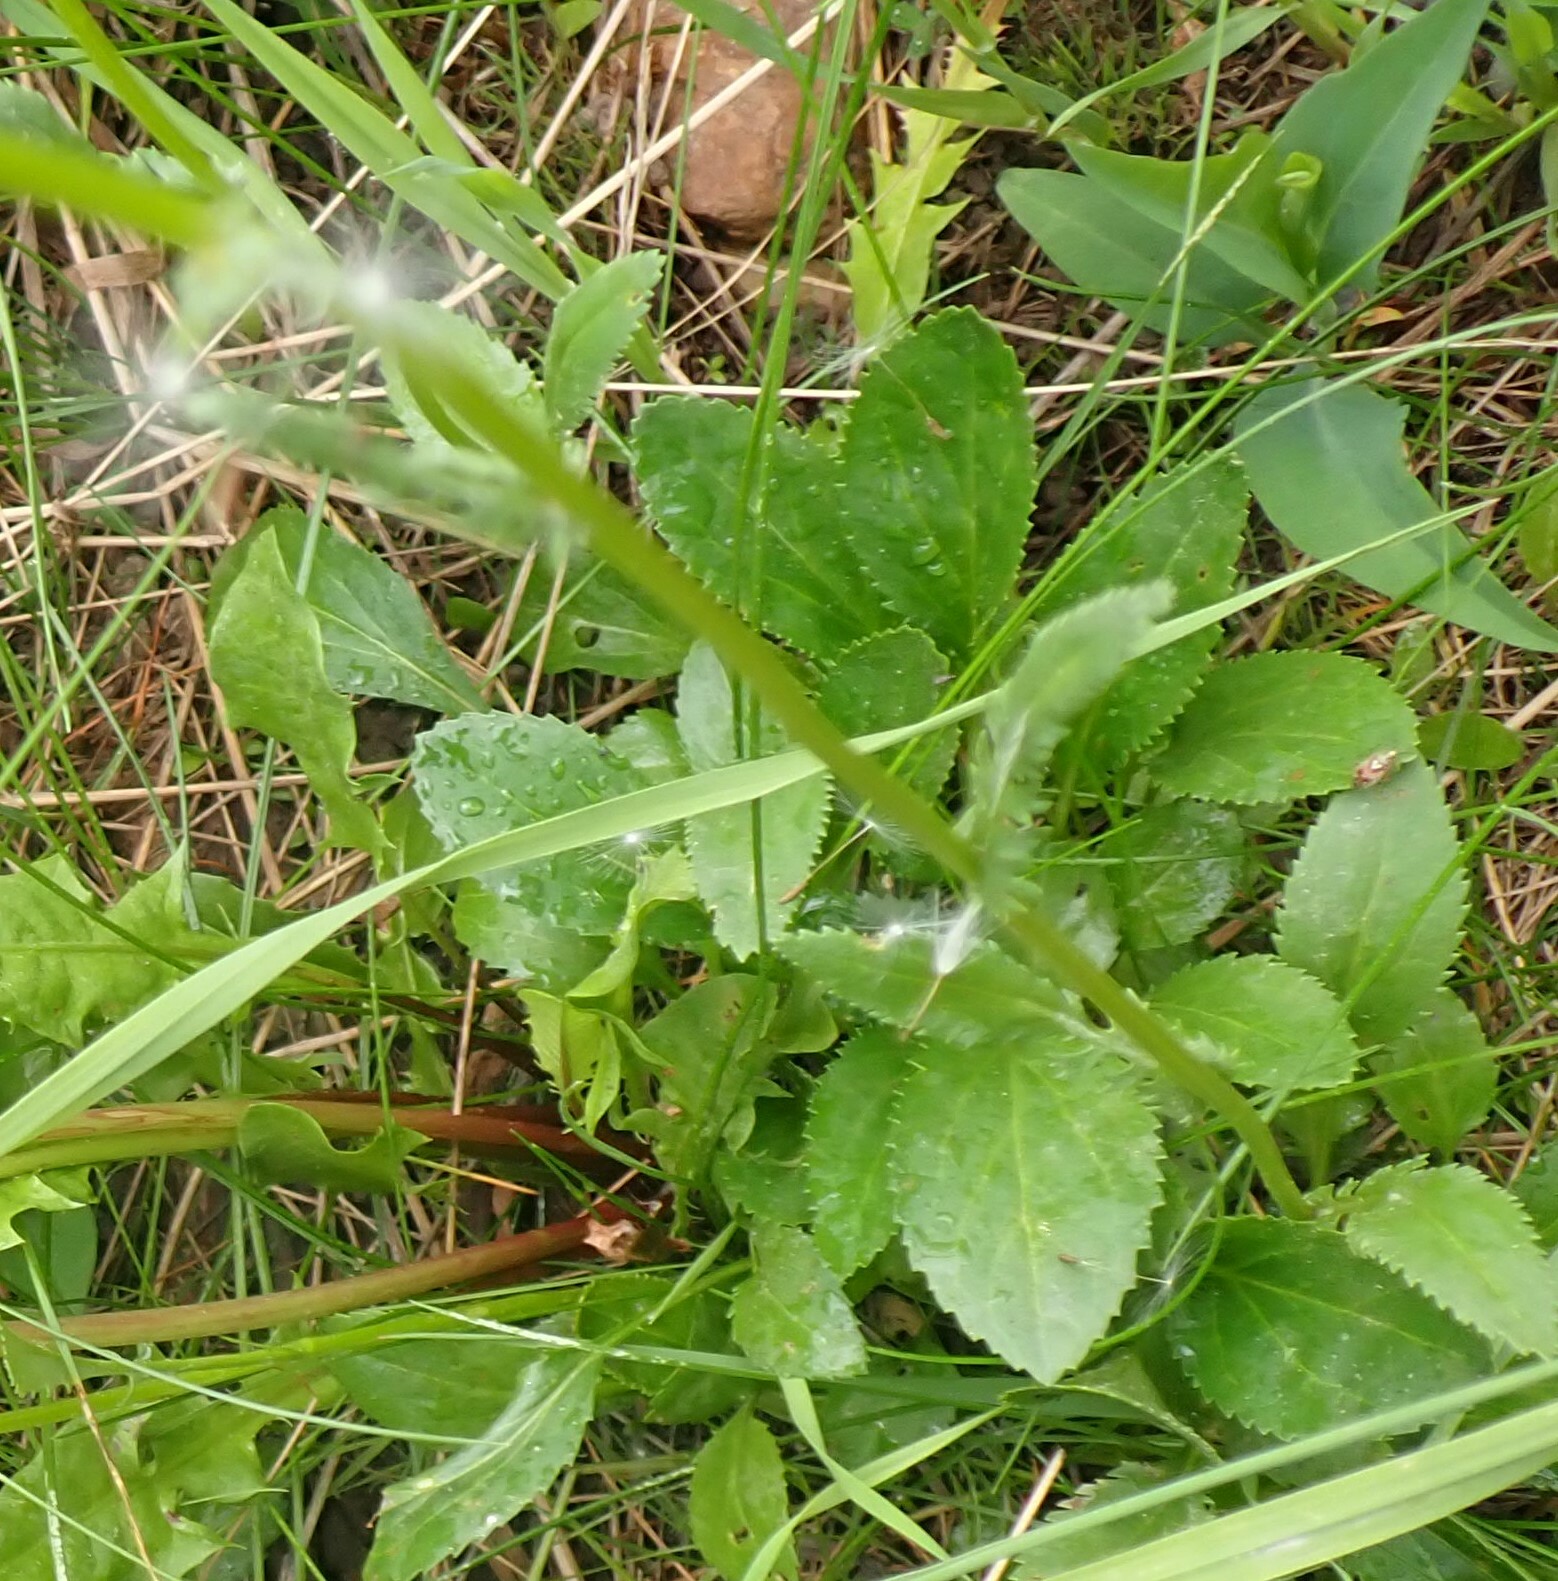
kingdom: Plantae
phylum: Tracheophyta
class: Magnoliopsida
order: Asterales
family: Asteraceae
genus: Packera
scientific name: Packera paupercula
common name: Balsam groundsel
